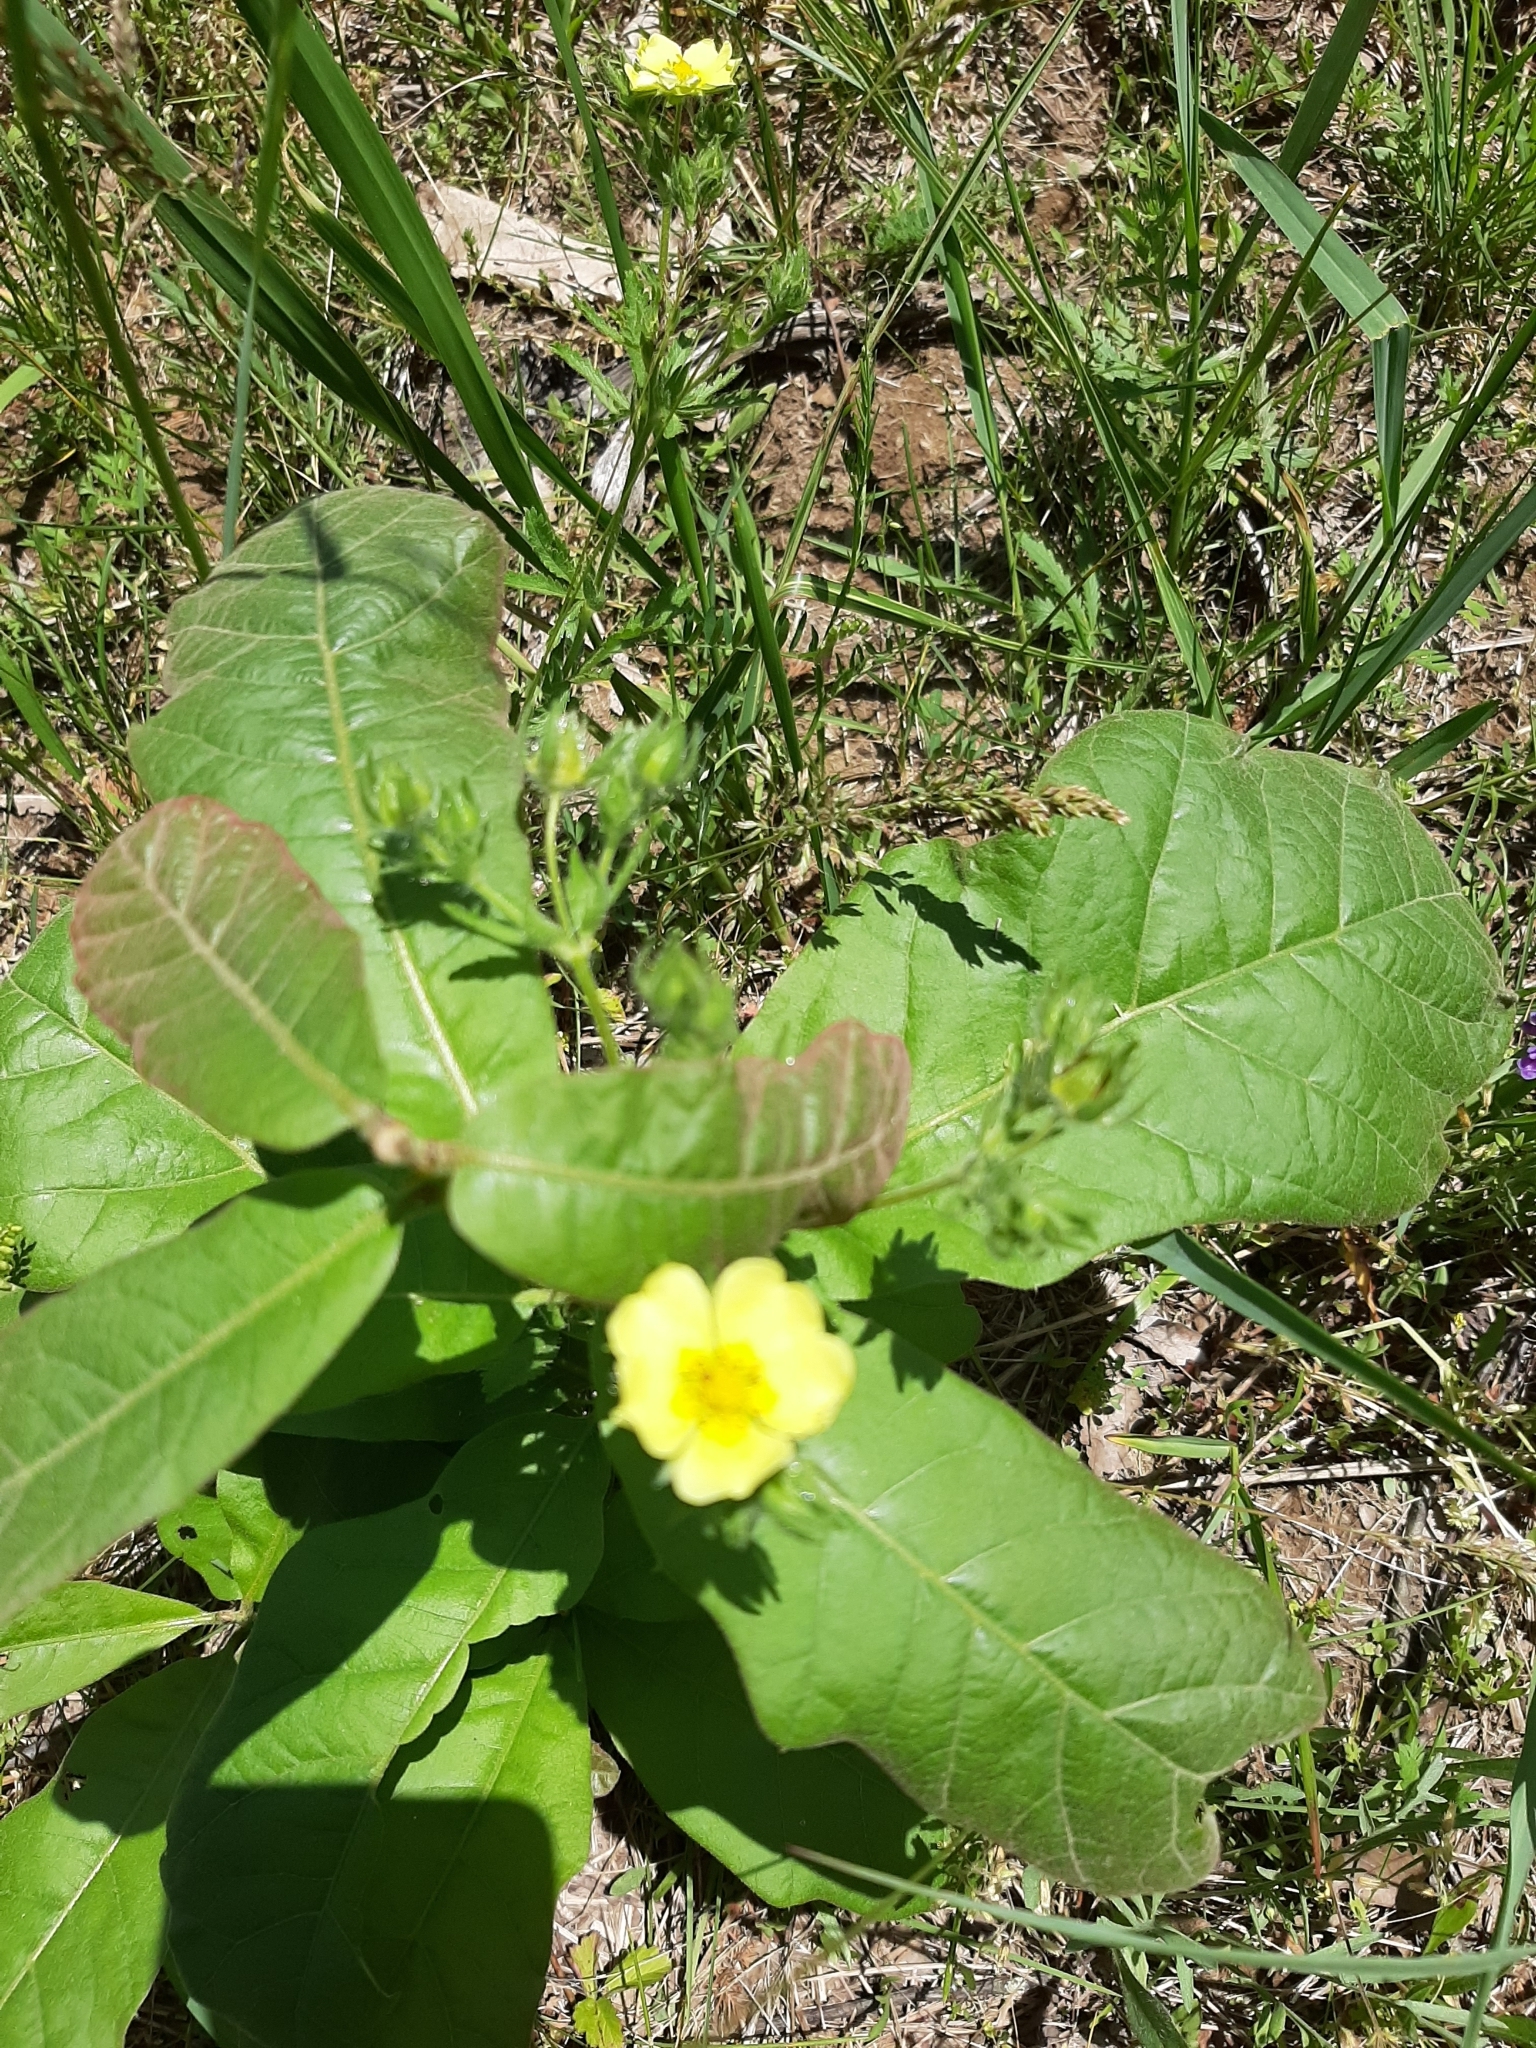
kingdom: Plantae
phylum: Tracheophyta
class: Magnoliopsida
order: Rosales
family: Rosaceae
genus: Potentilla
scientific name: Potentilla recta
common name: Sulphur cinquefoil
